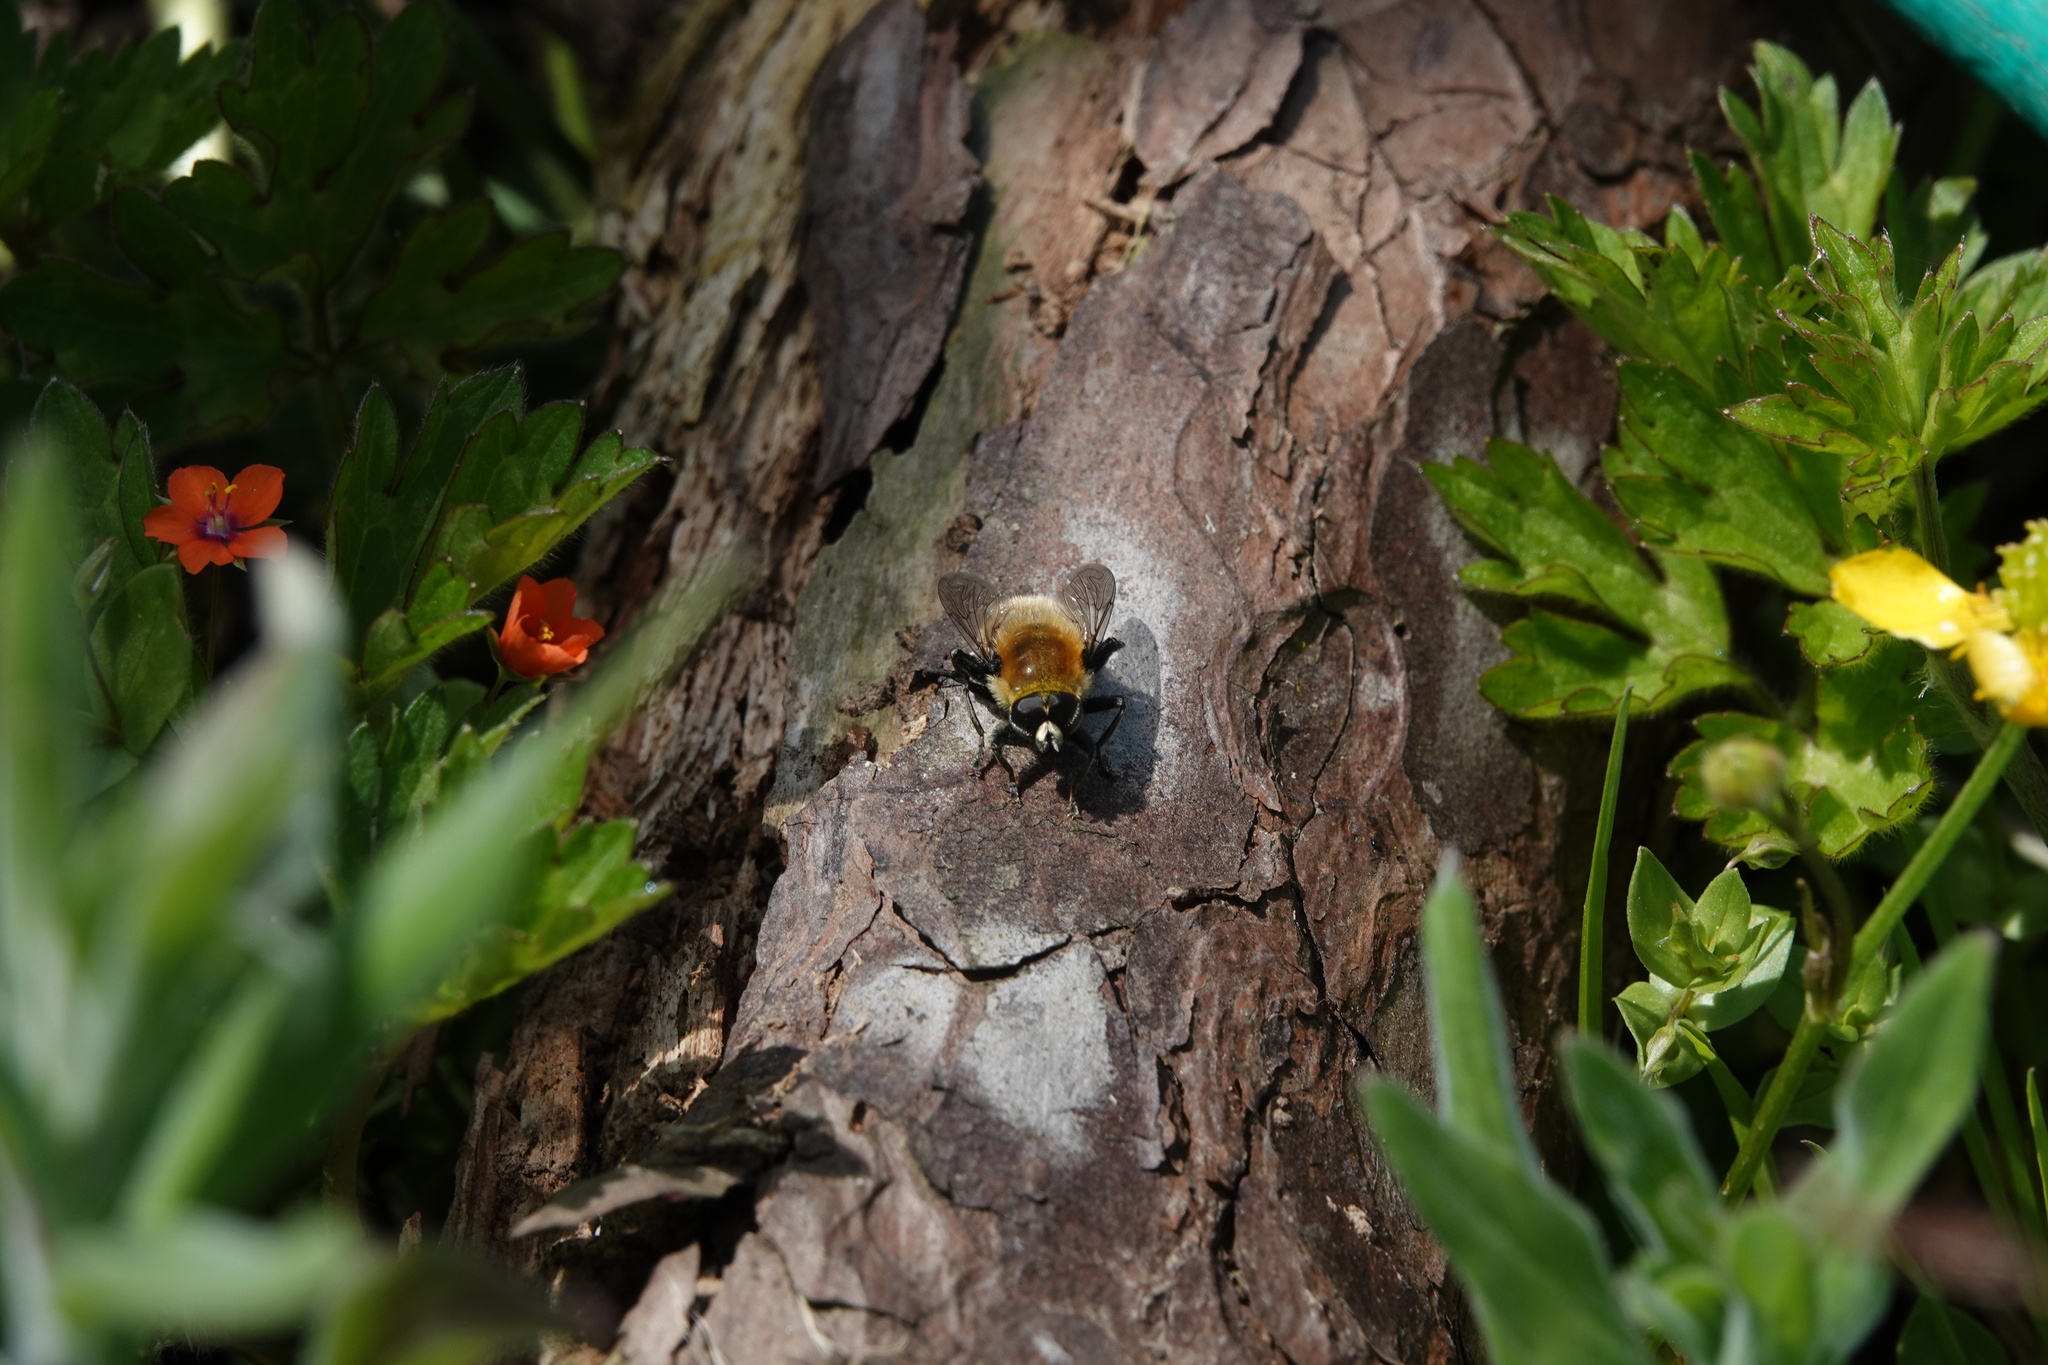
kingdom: Animalia
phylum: Arthropoda
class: Insecta
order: Diptera
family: Syrphidae
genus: Merodon
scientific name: Merodon equestris
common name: Greater bulb-fly
